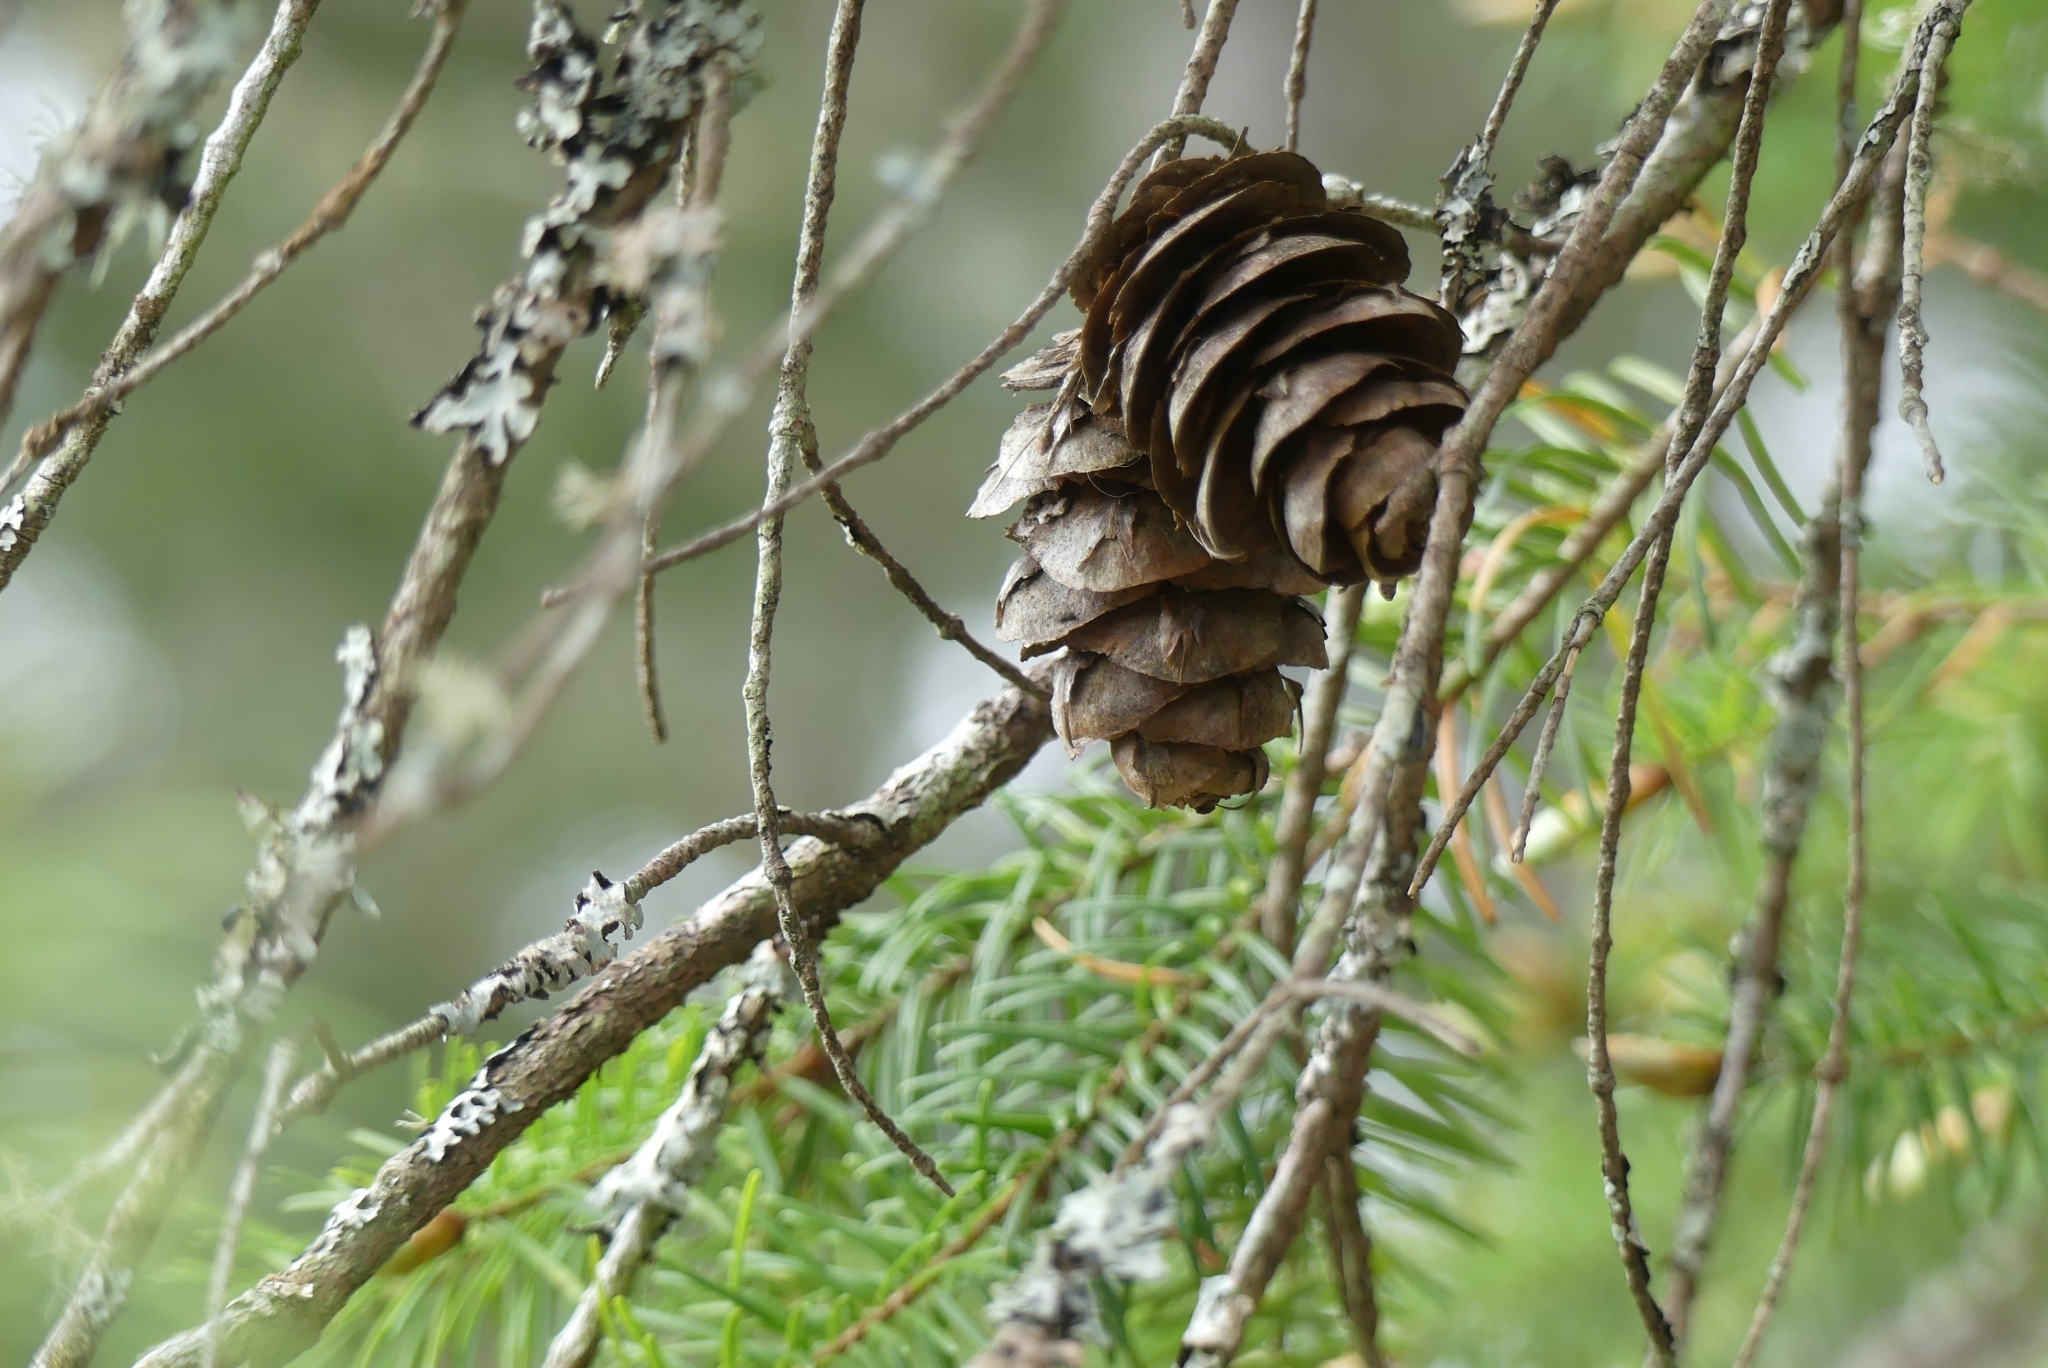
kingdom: Plantae
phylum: Tracheophyta
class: Pinopsida
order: Pinales
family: Pinaceae
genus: Pseudotsuga
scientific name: Pseudotsuga menziesii
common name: Douglas fir
